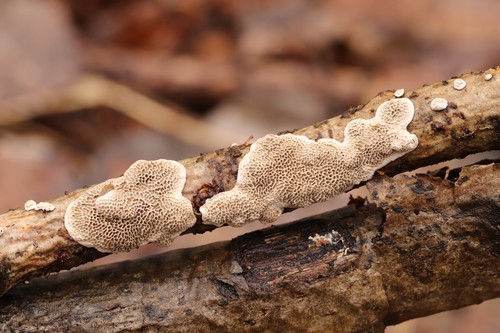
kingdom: Fungi
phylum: Basidiomycota
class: Agaricomycetes
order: Polyporales
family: Polyporaceae
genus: Podofomes
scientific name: Podofomes mollis
